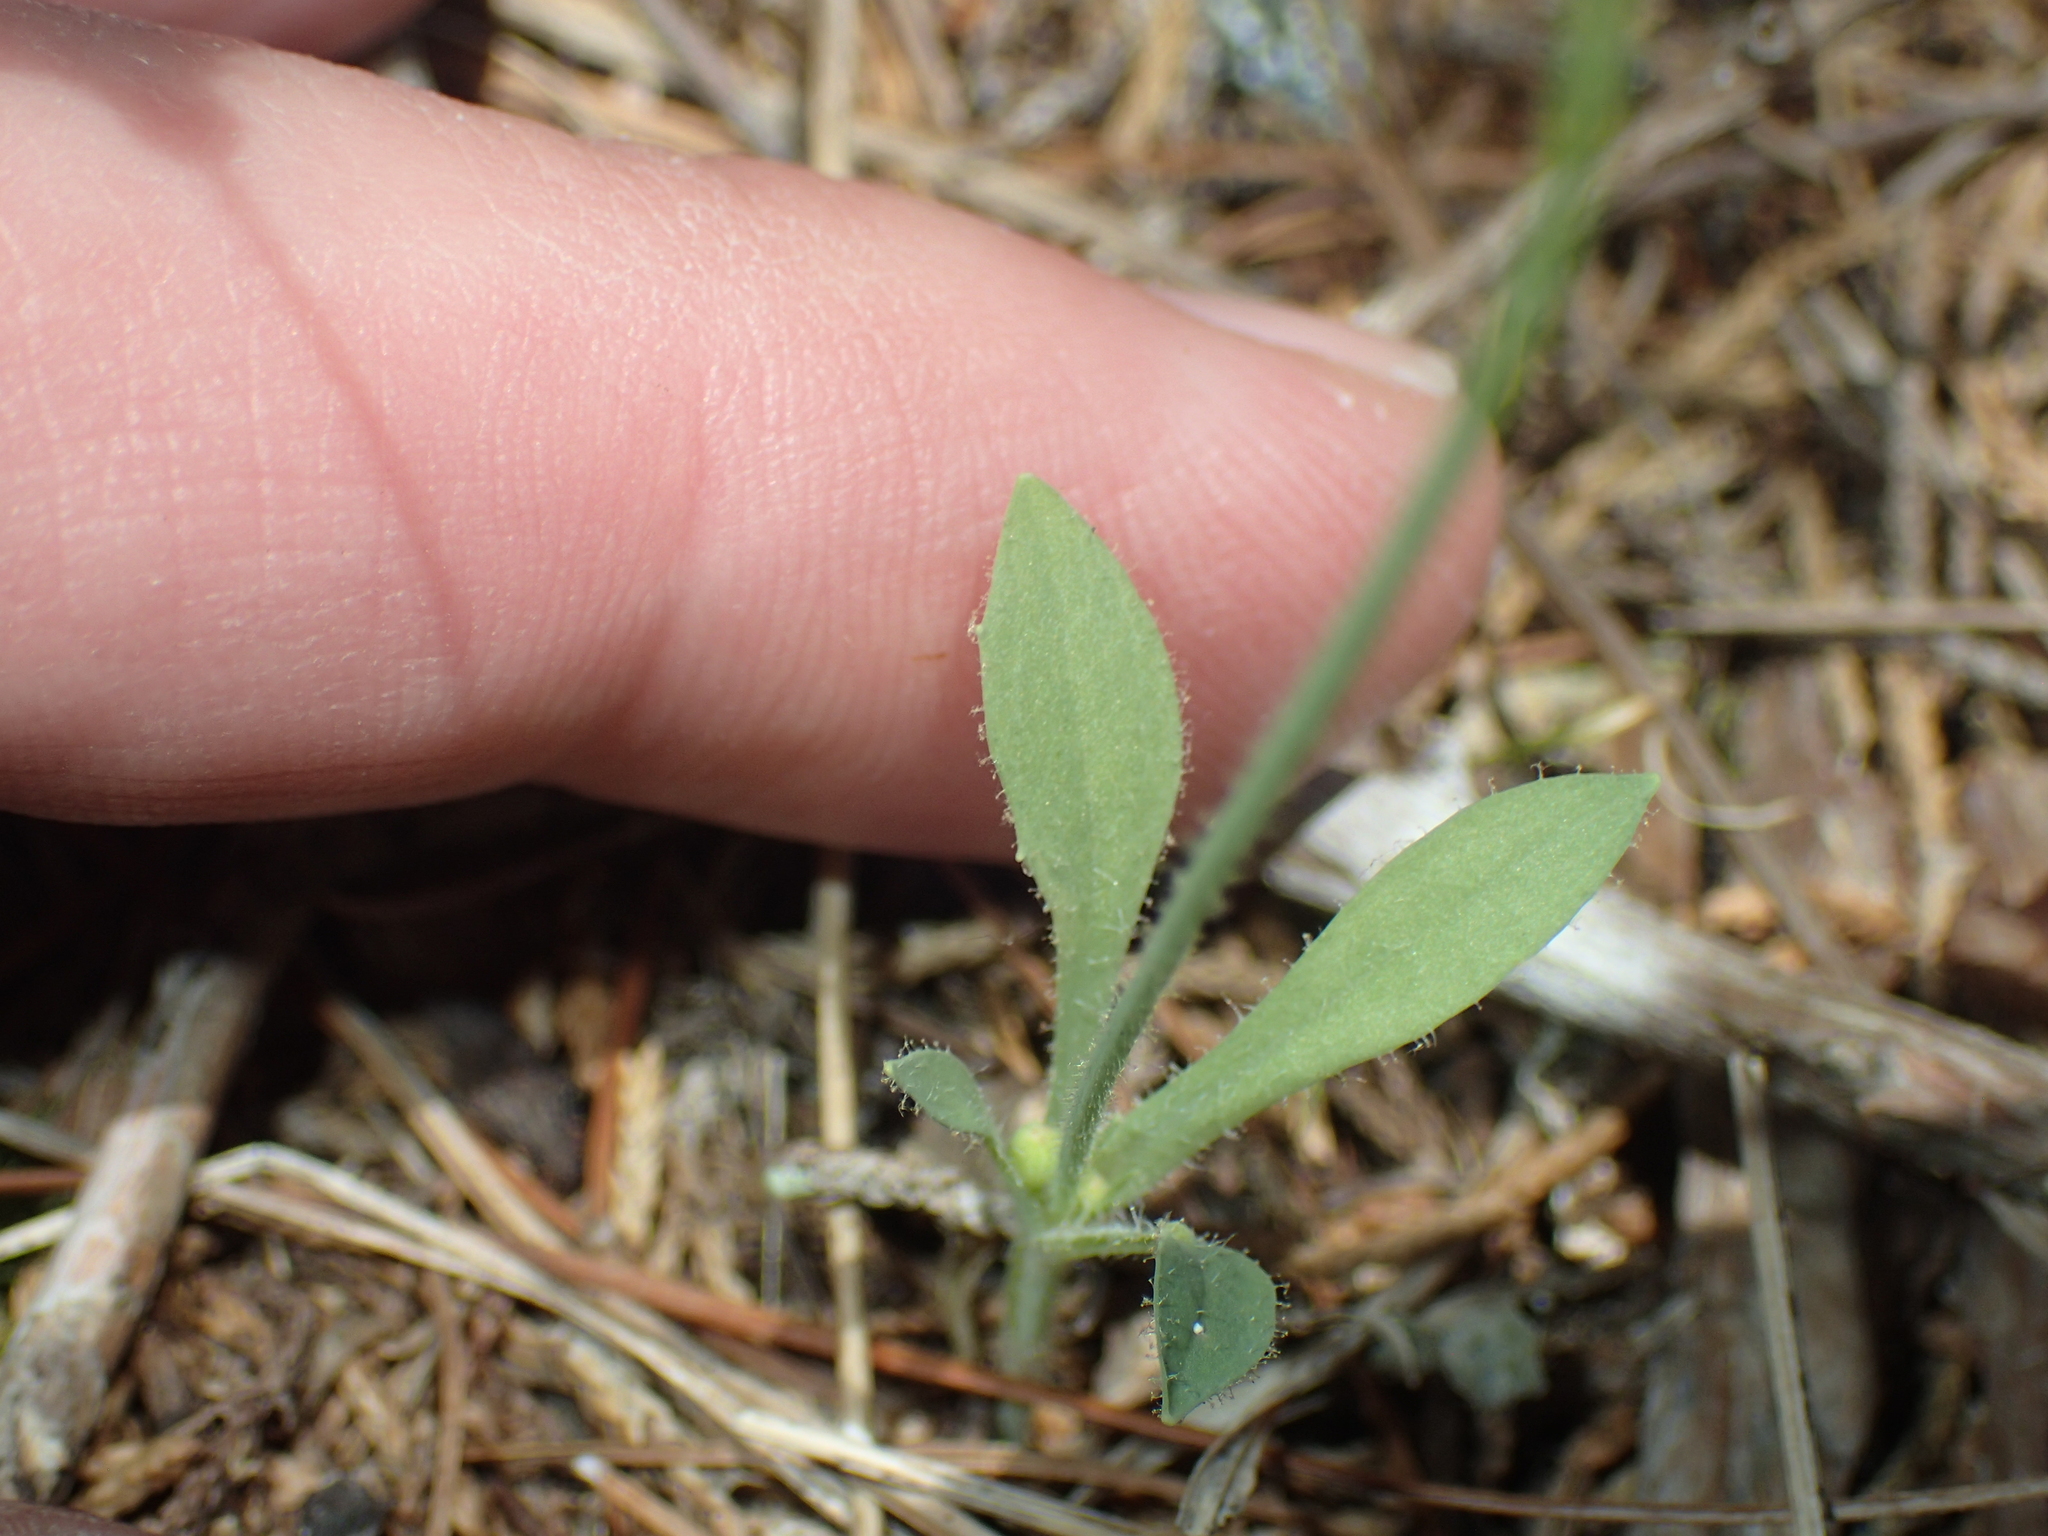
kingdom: Plantae
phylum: Tracheophyta
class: Magnoliopsida
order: Asterales
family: Asteraceae
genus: Krigia
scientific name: Krigia virginica
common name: Virginia dwarf-dandelion
